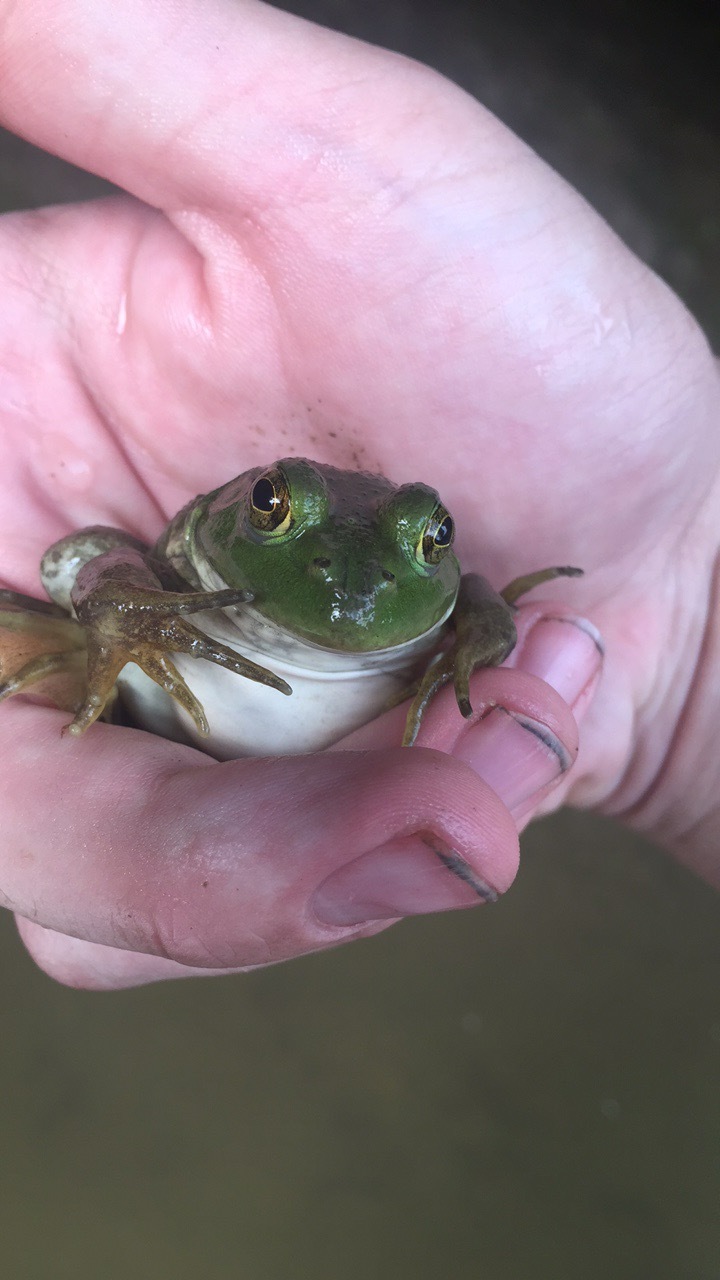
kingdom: Animalia
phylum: Chordata
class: Amphibia
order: Anura
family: Ranidae
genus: Lithobates
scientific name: Lithobates catesbeianus
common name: American bullfrog
